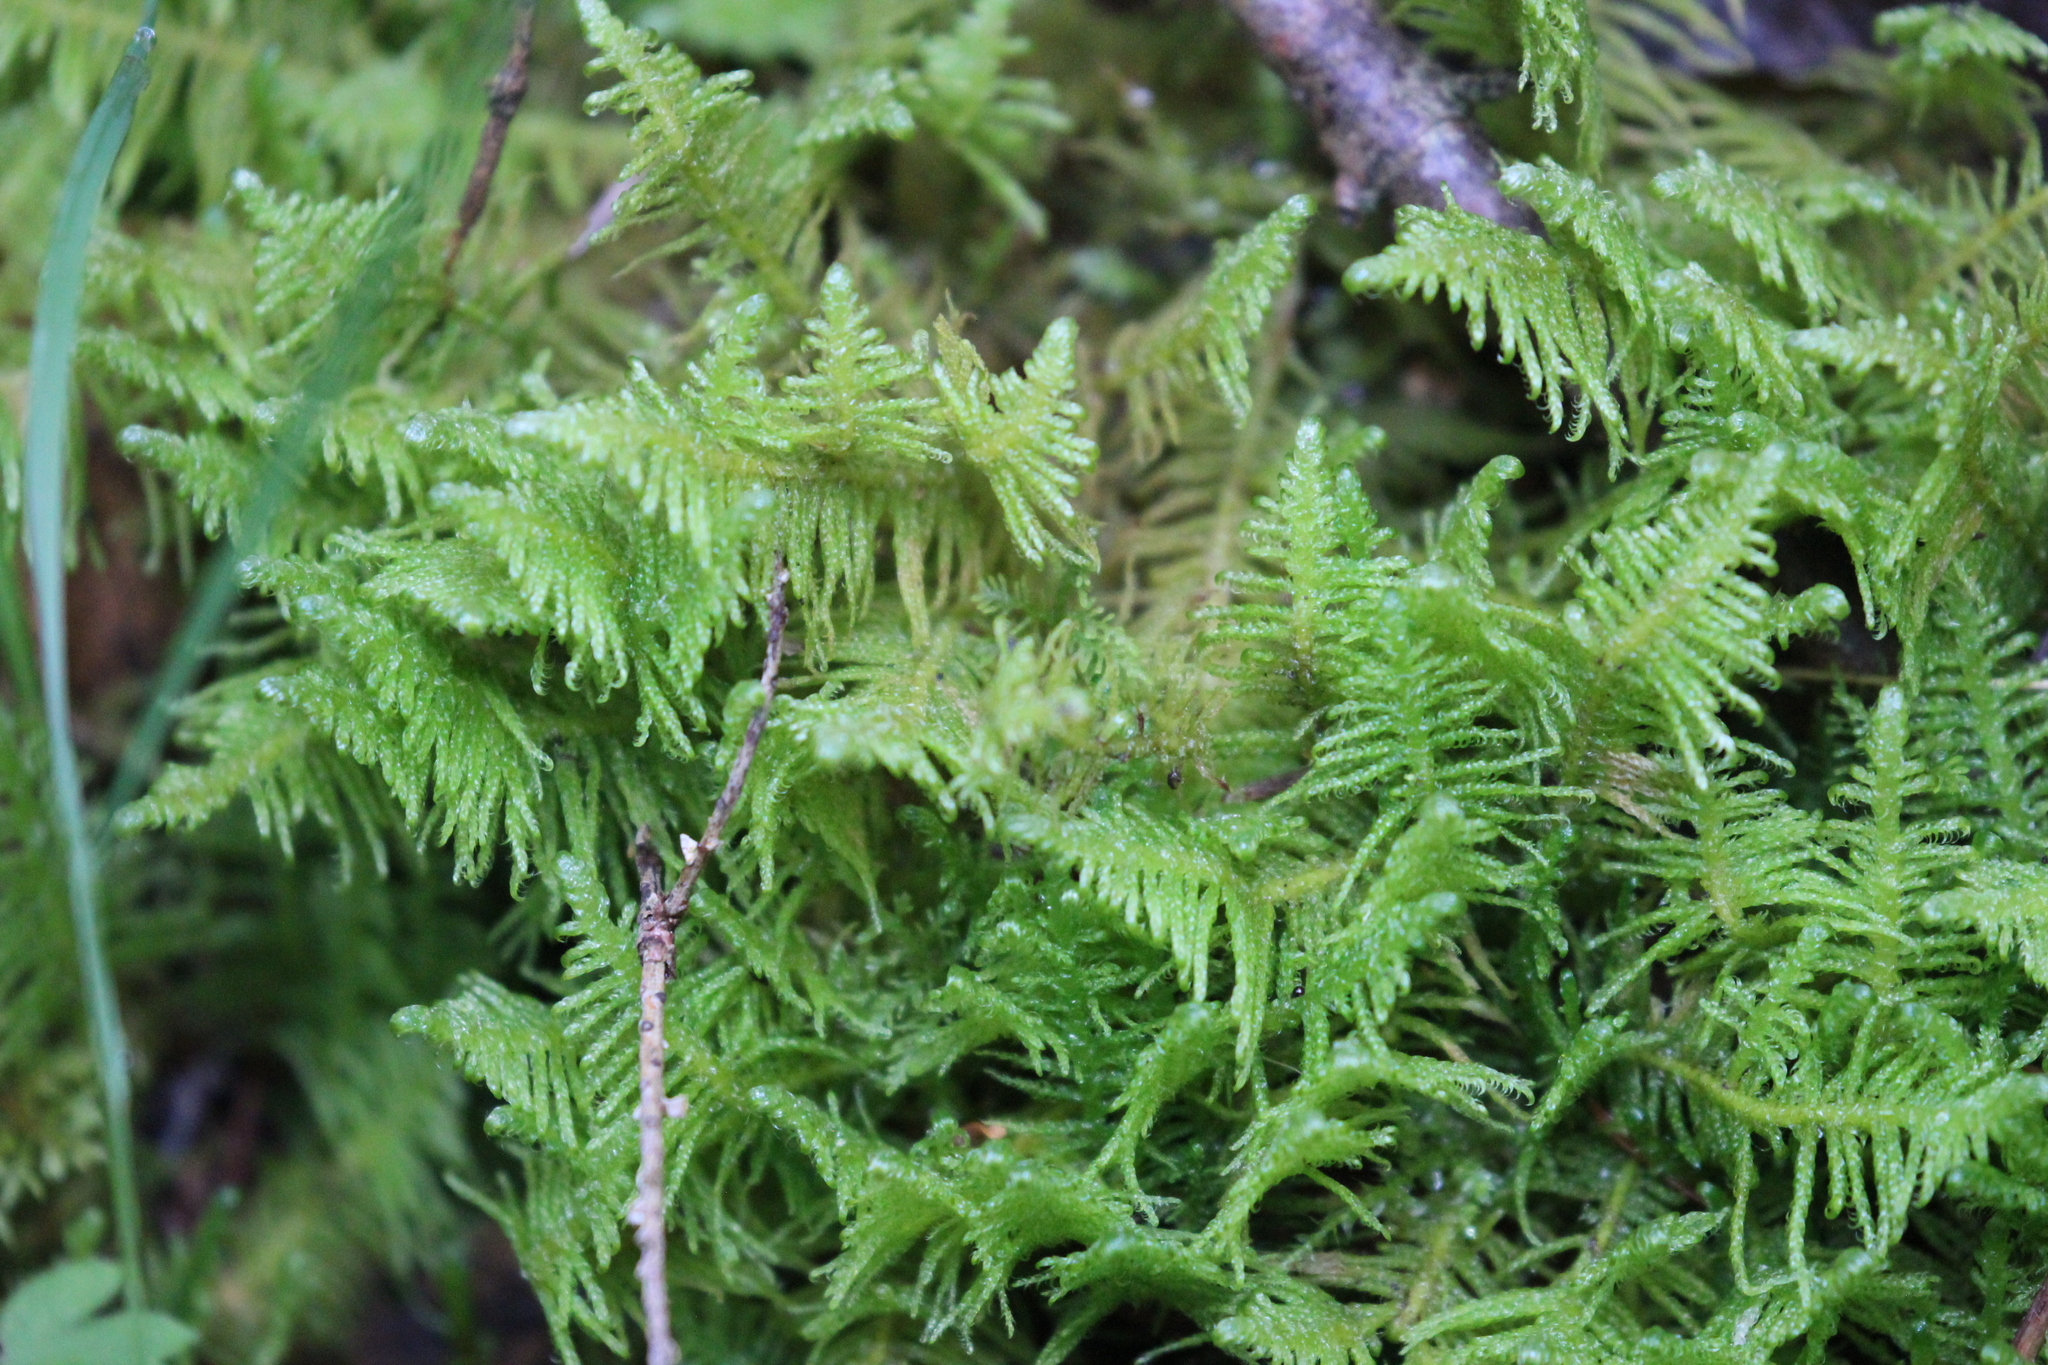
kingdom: Plantae
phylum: Bryophyta
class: Bryopsida
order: Hypnales
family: Pylaisiaceae
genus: Ptilium
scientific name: Ptilium crista-castrensis
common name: Knight's plume moss
